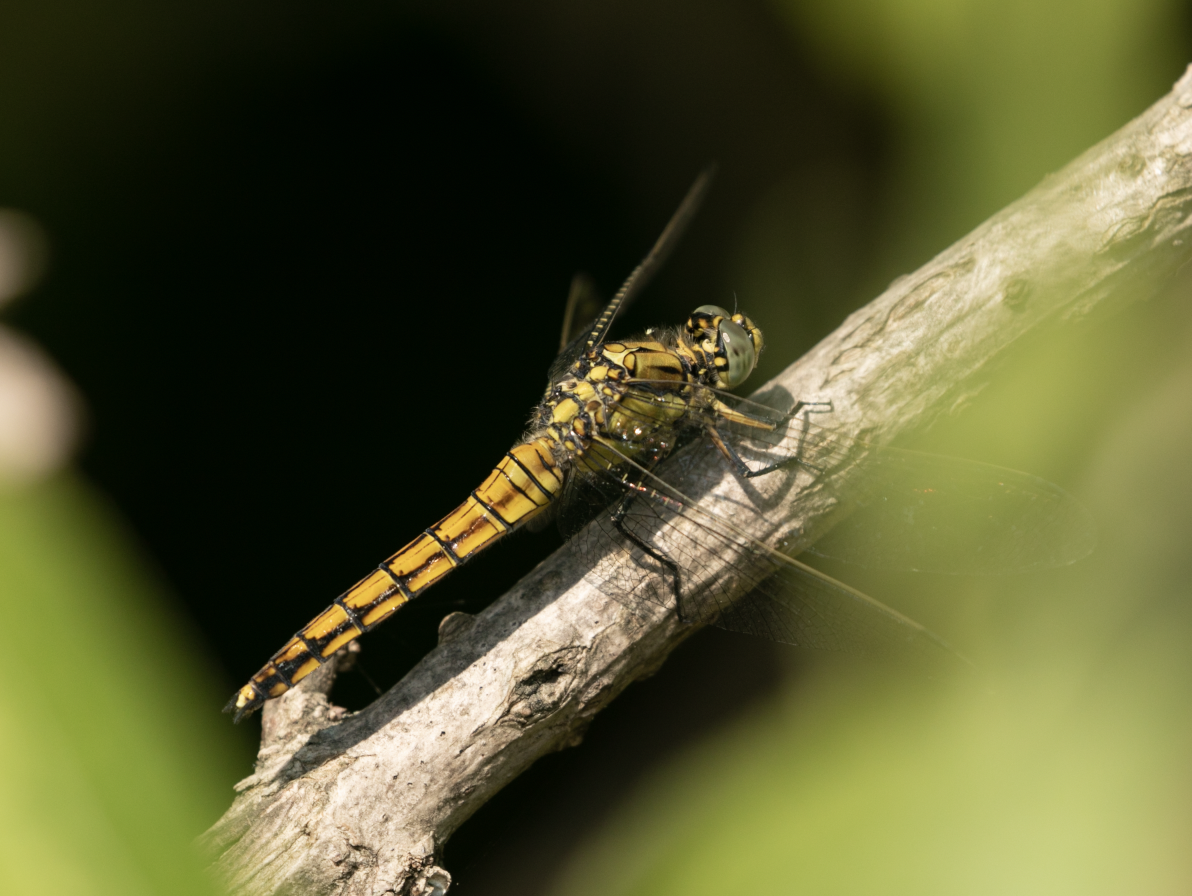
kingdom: Animalia
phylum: Arthropoda
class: Insecta
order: Odonata
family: Libellulidae
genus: Orthetrum
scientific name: Orthetrum cancellatum
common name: Black-tailed skimmer
